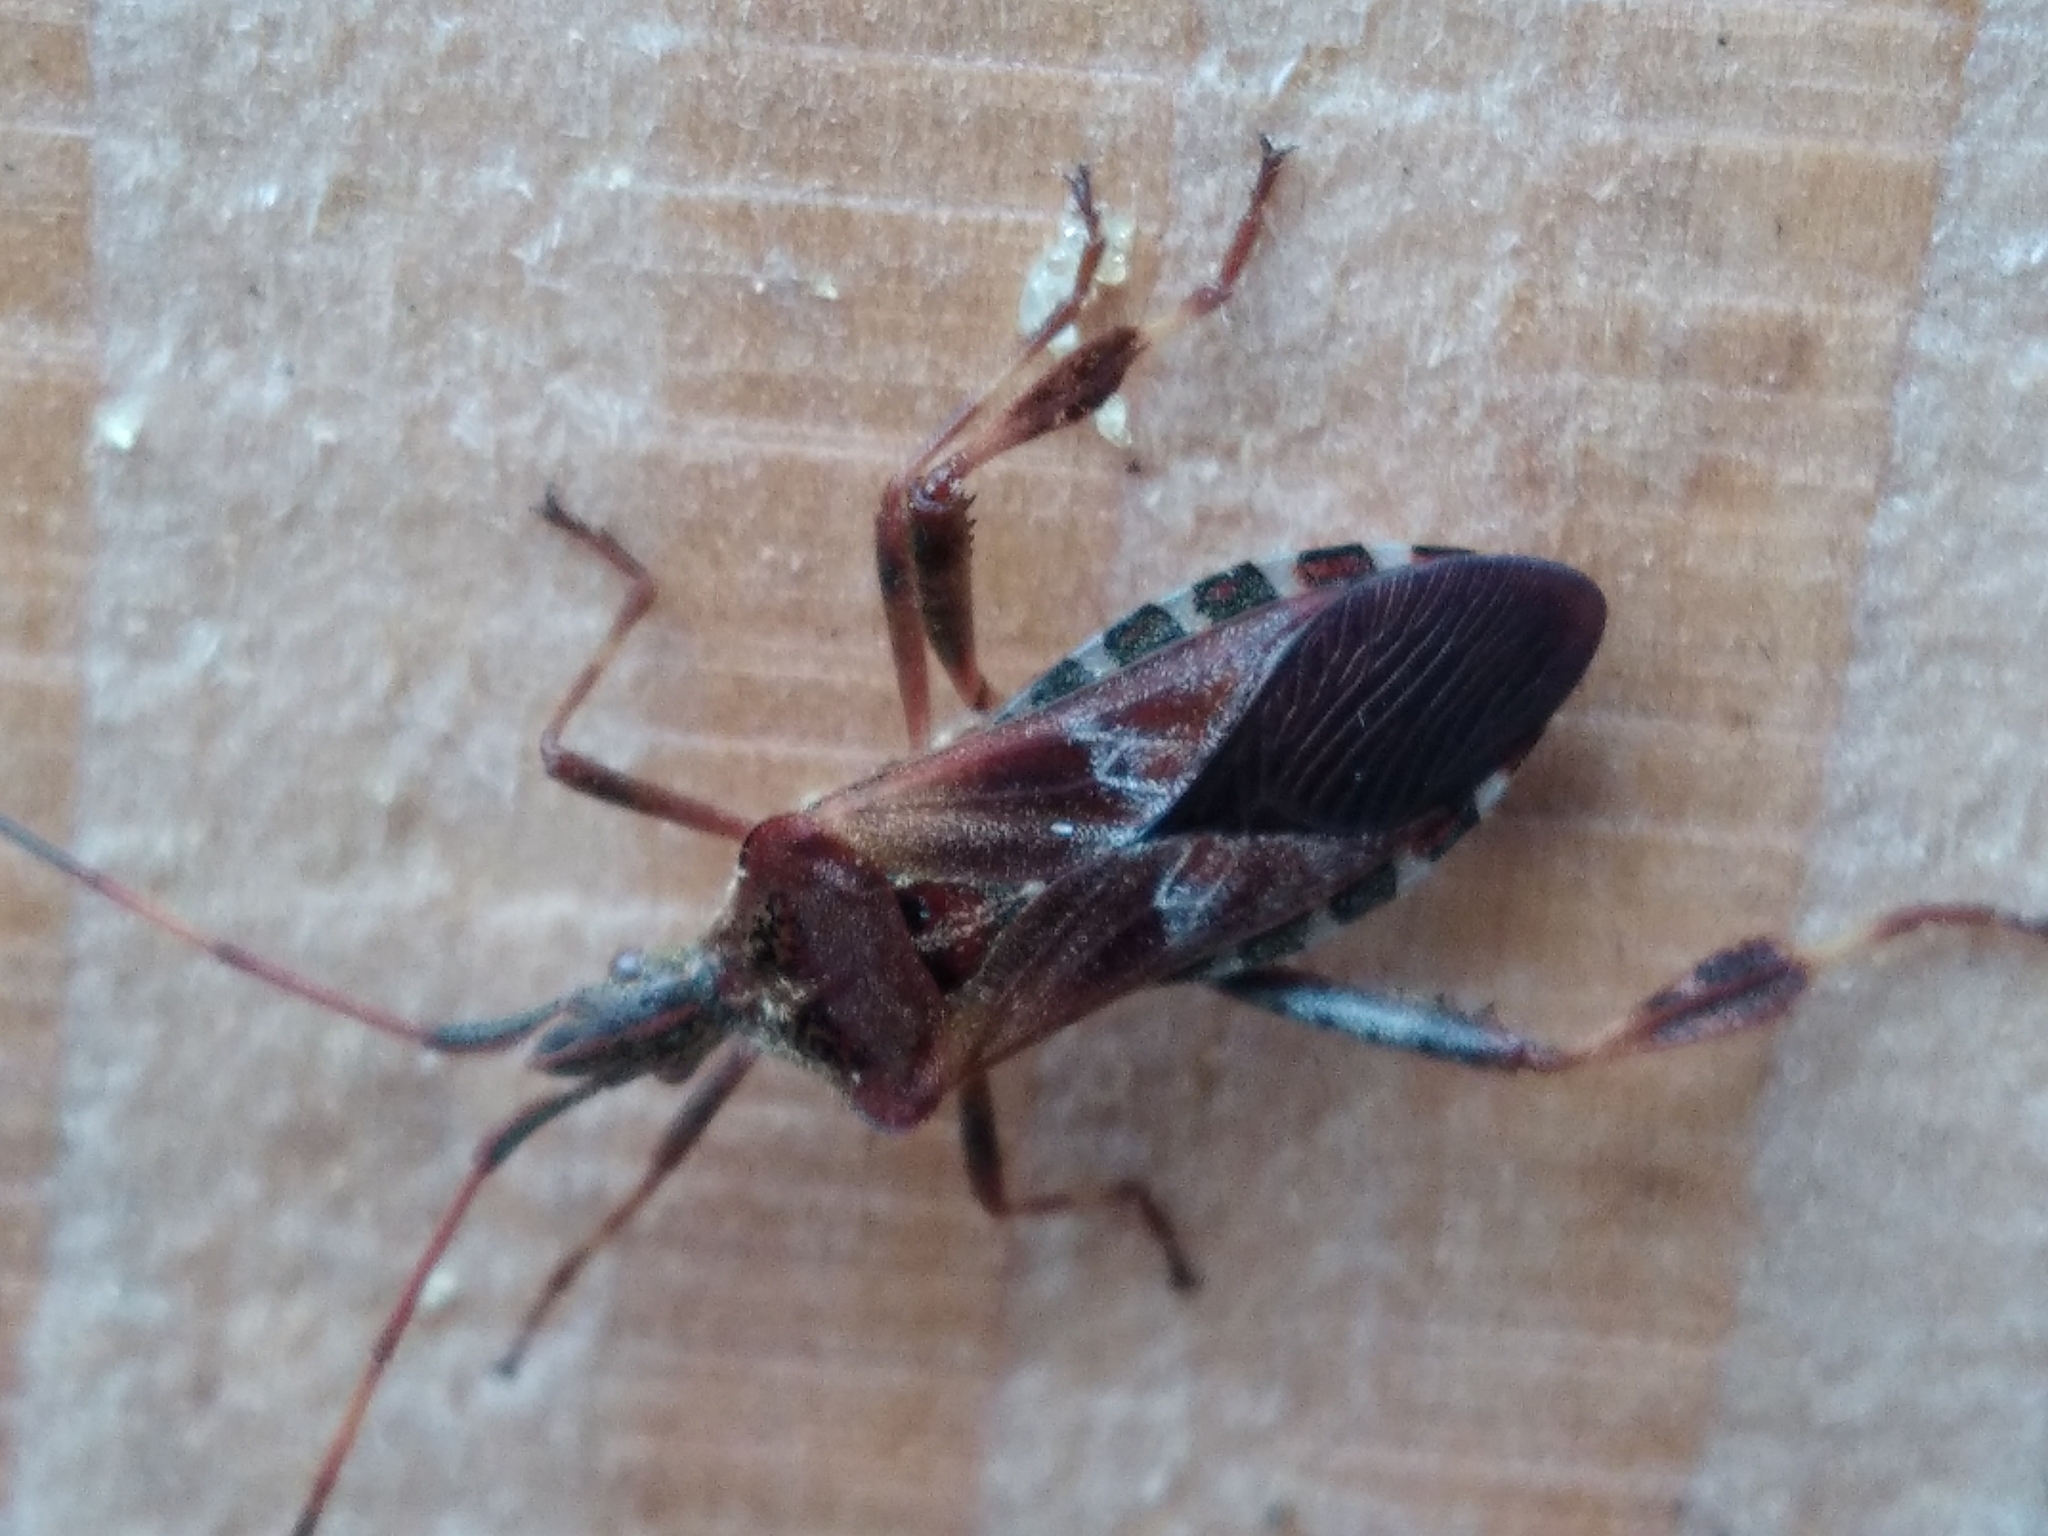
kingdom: Animalia
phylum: Arthropoda
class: Insecta
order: Hemiptera
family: Coreidae
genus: Leptoglossus
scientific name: Leptoglossus occidentalis
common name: Western conifer-seed bug
